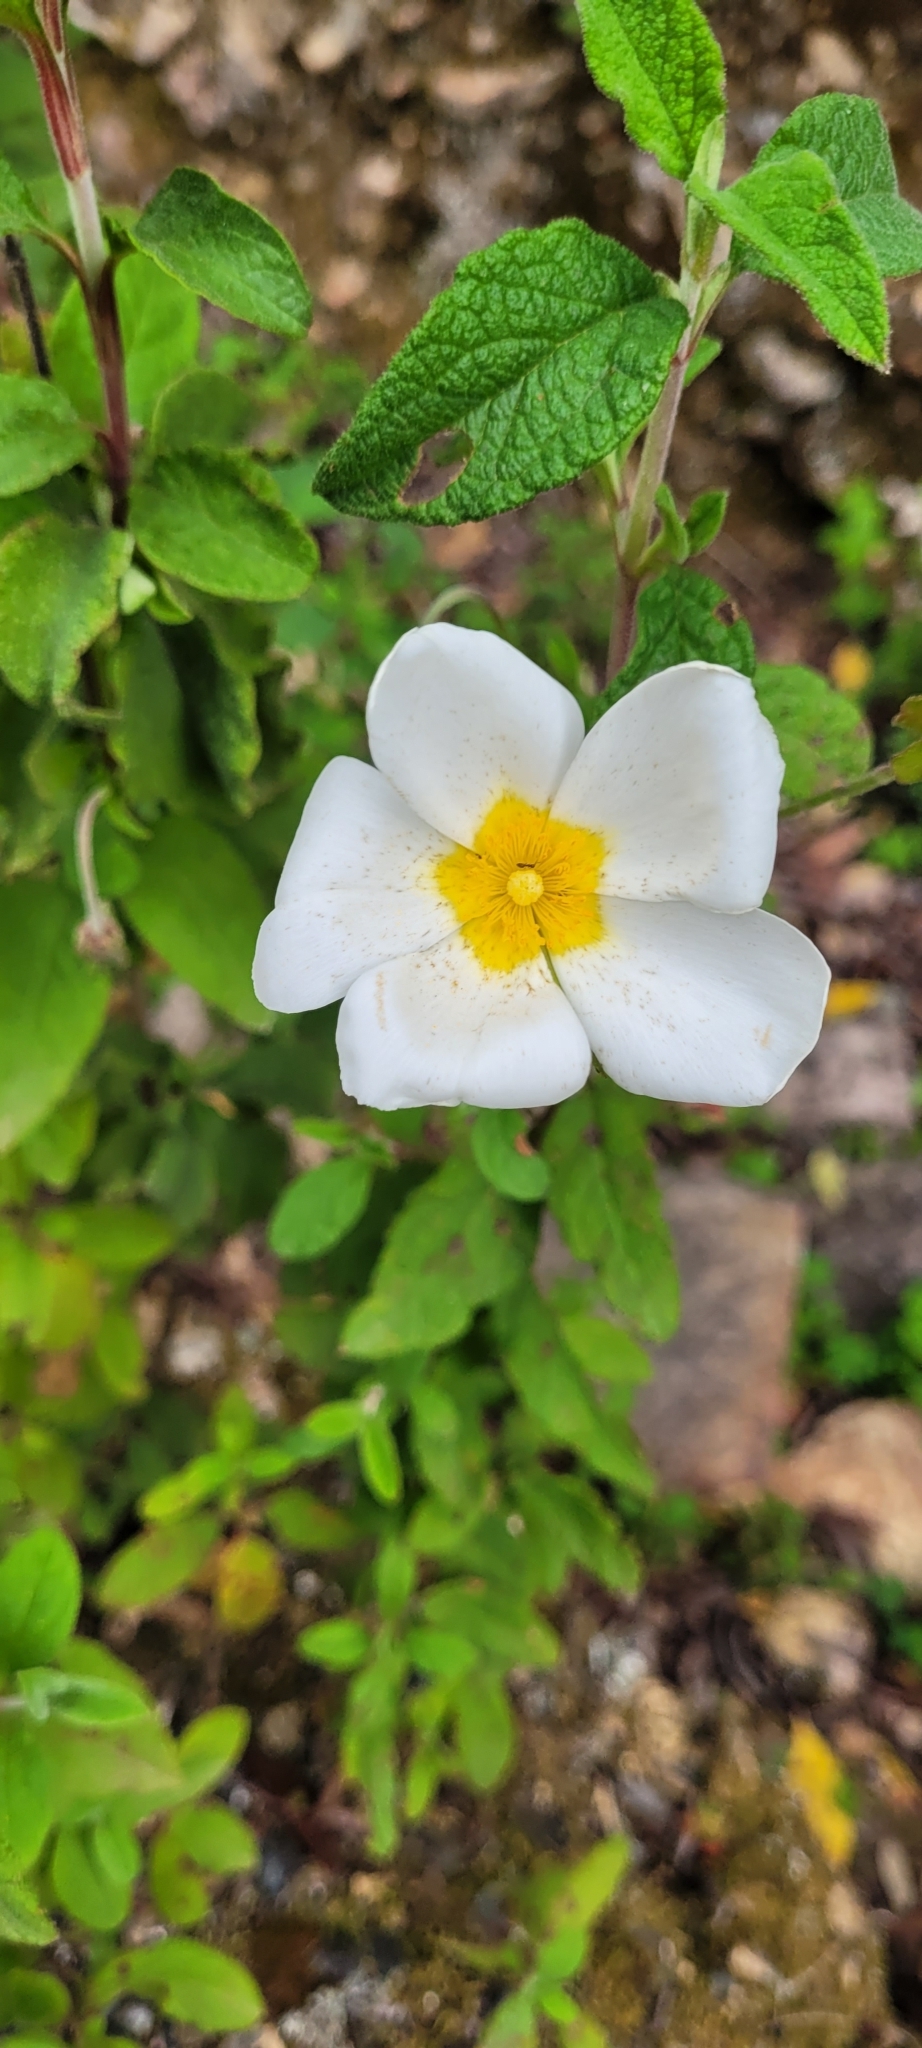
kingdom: Plantae
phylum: Tracheophyta
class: Magnoliopsida
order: Malvales
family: Cistaceae
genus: Cistus
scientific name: Cistus salviifolius
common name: Salvia cistus
